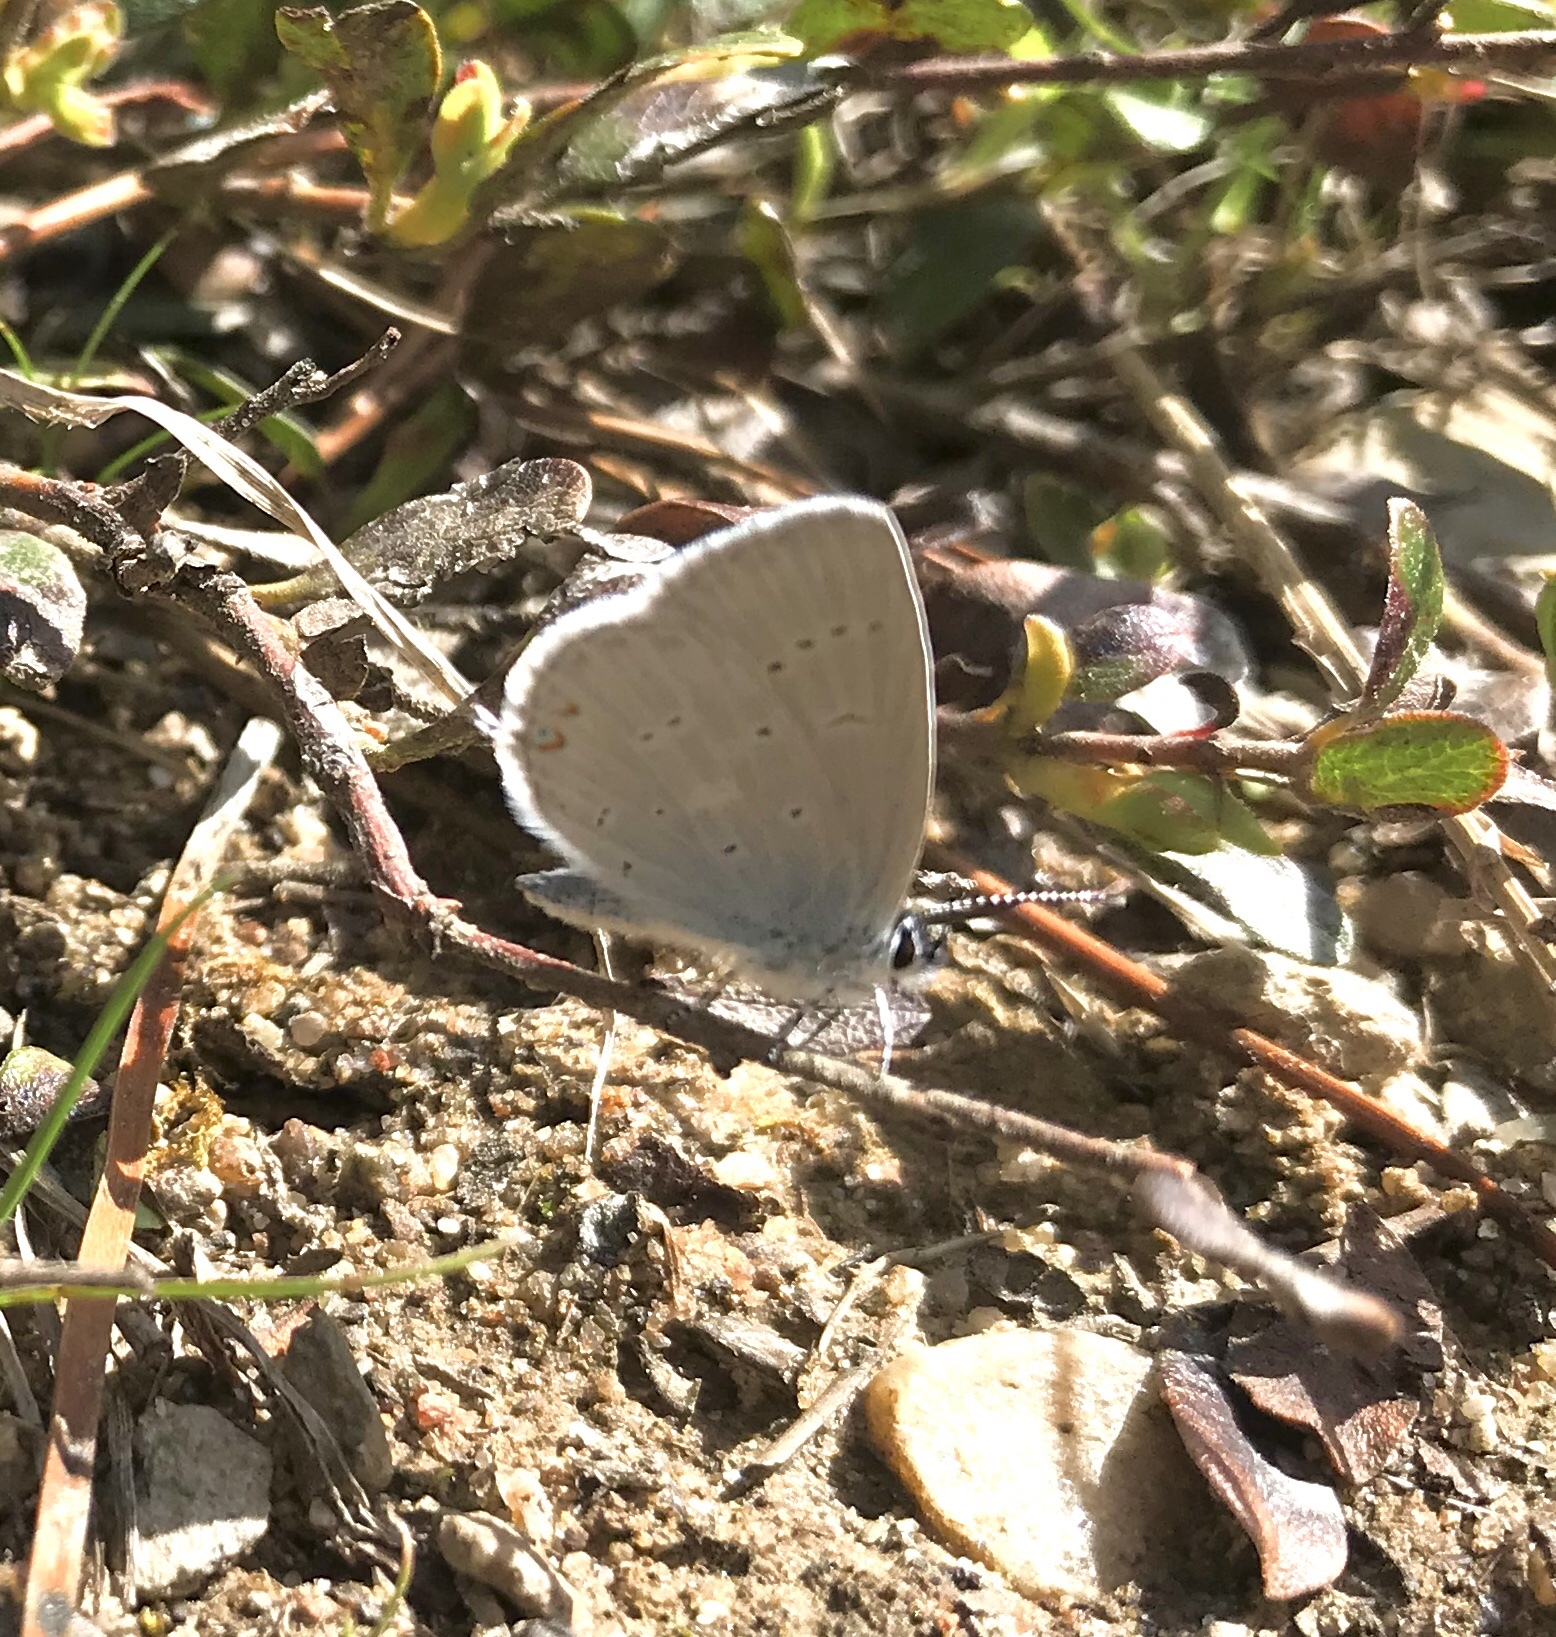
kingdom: Animalia
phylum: Arthropoda
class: Insecta
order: Lepidoptera
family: Lycaenidae
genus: Elkalyce
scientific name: Elkalyce amyntula
